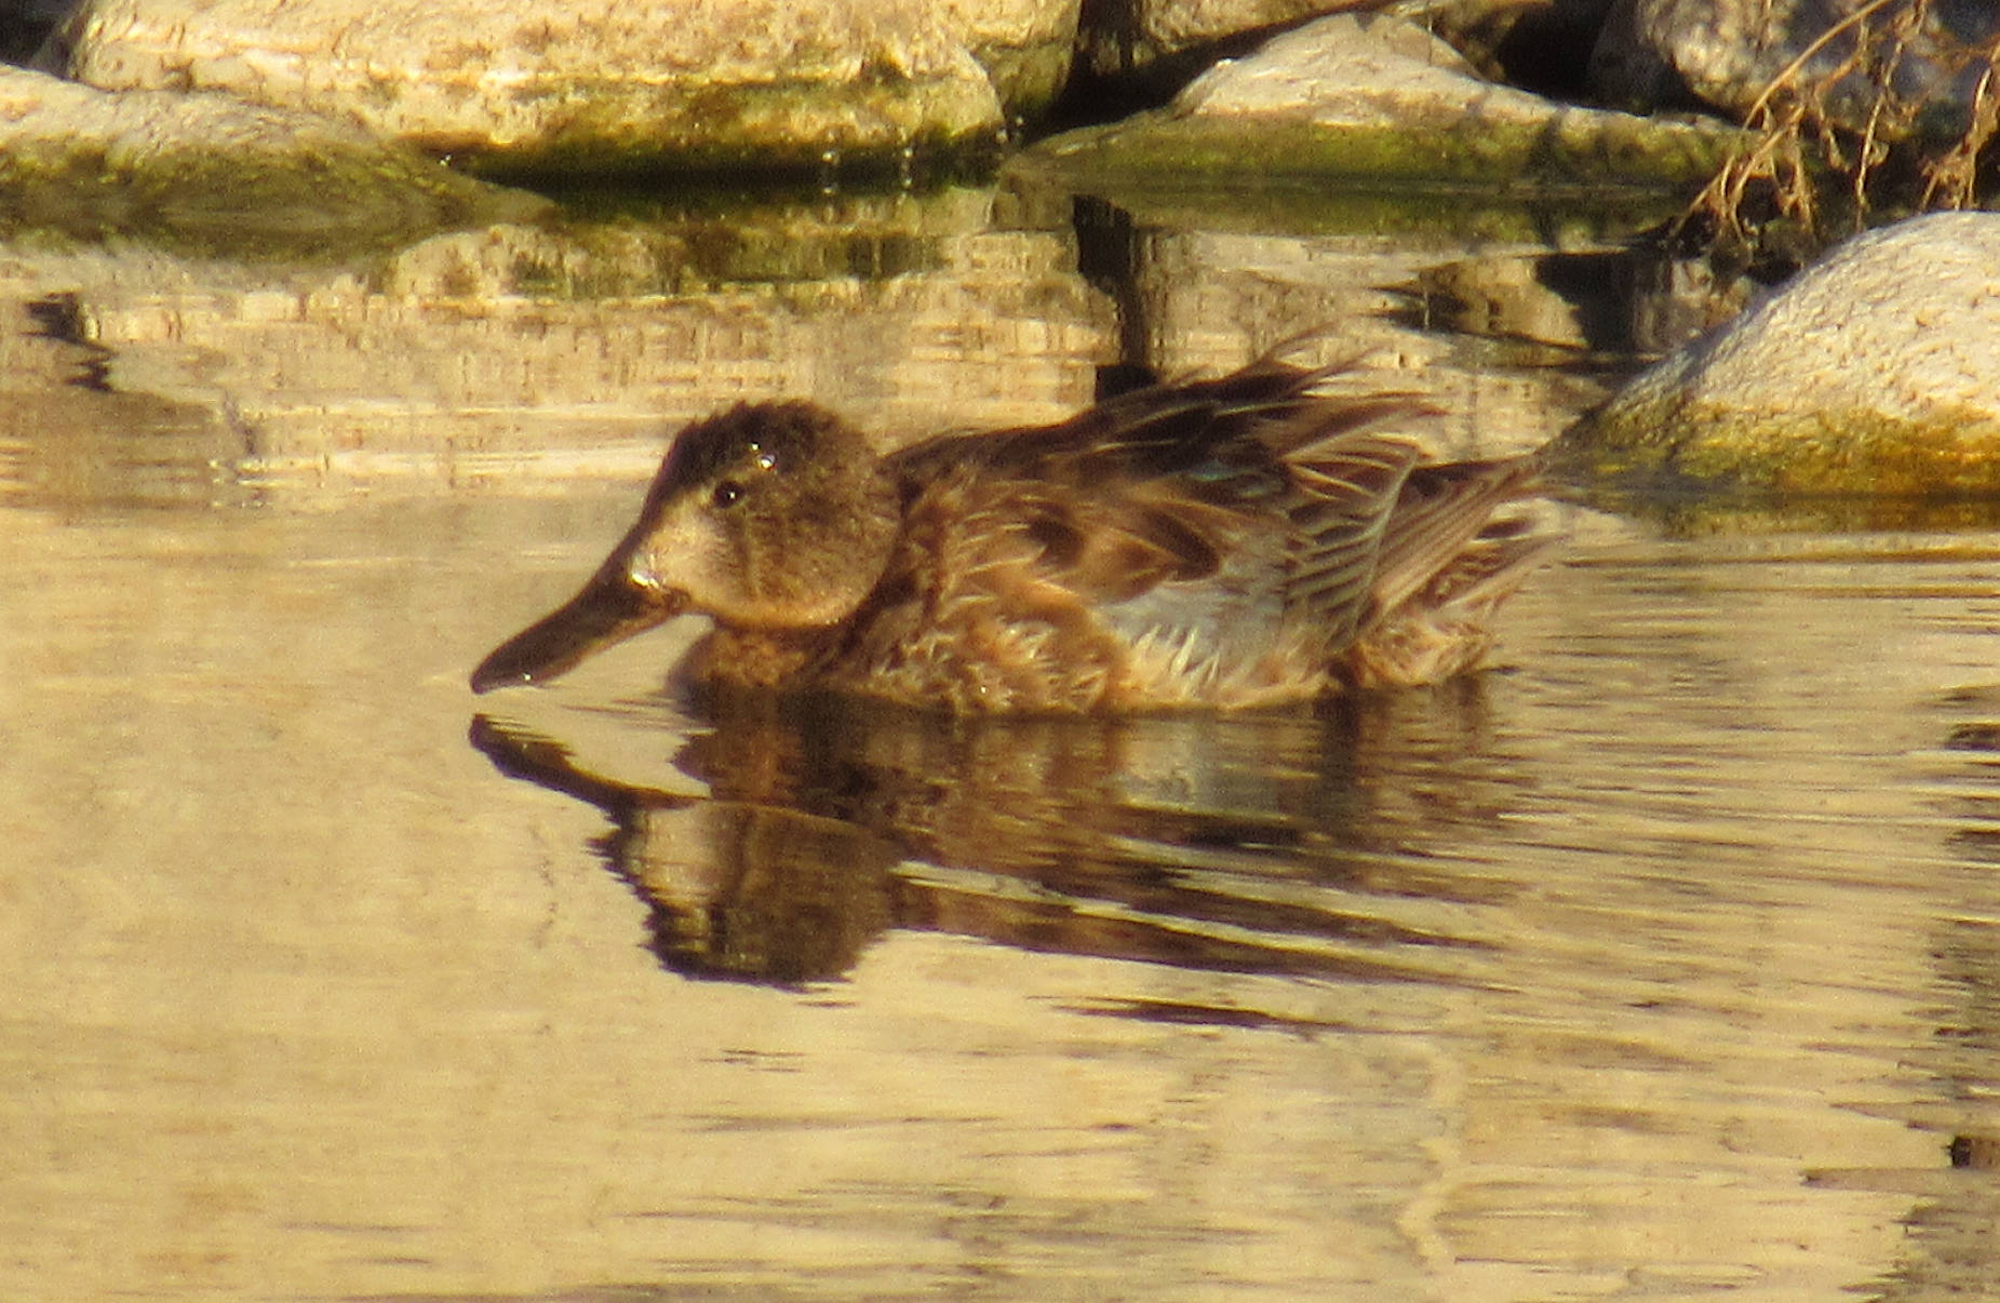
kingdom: Animalia
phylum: Chordata
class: Aves
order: Anseriformes
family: Anatidae
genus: Spatula
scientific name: Spatula clypeata
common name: Northern shoveler
